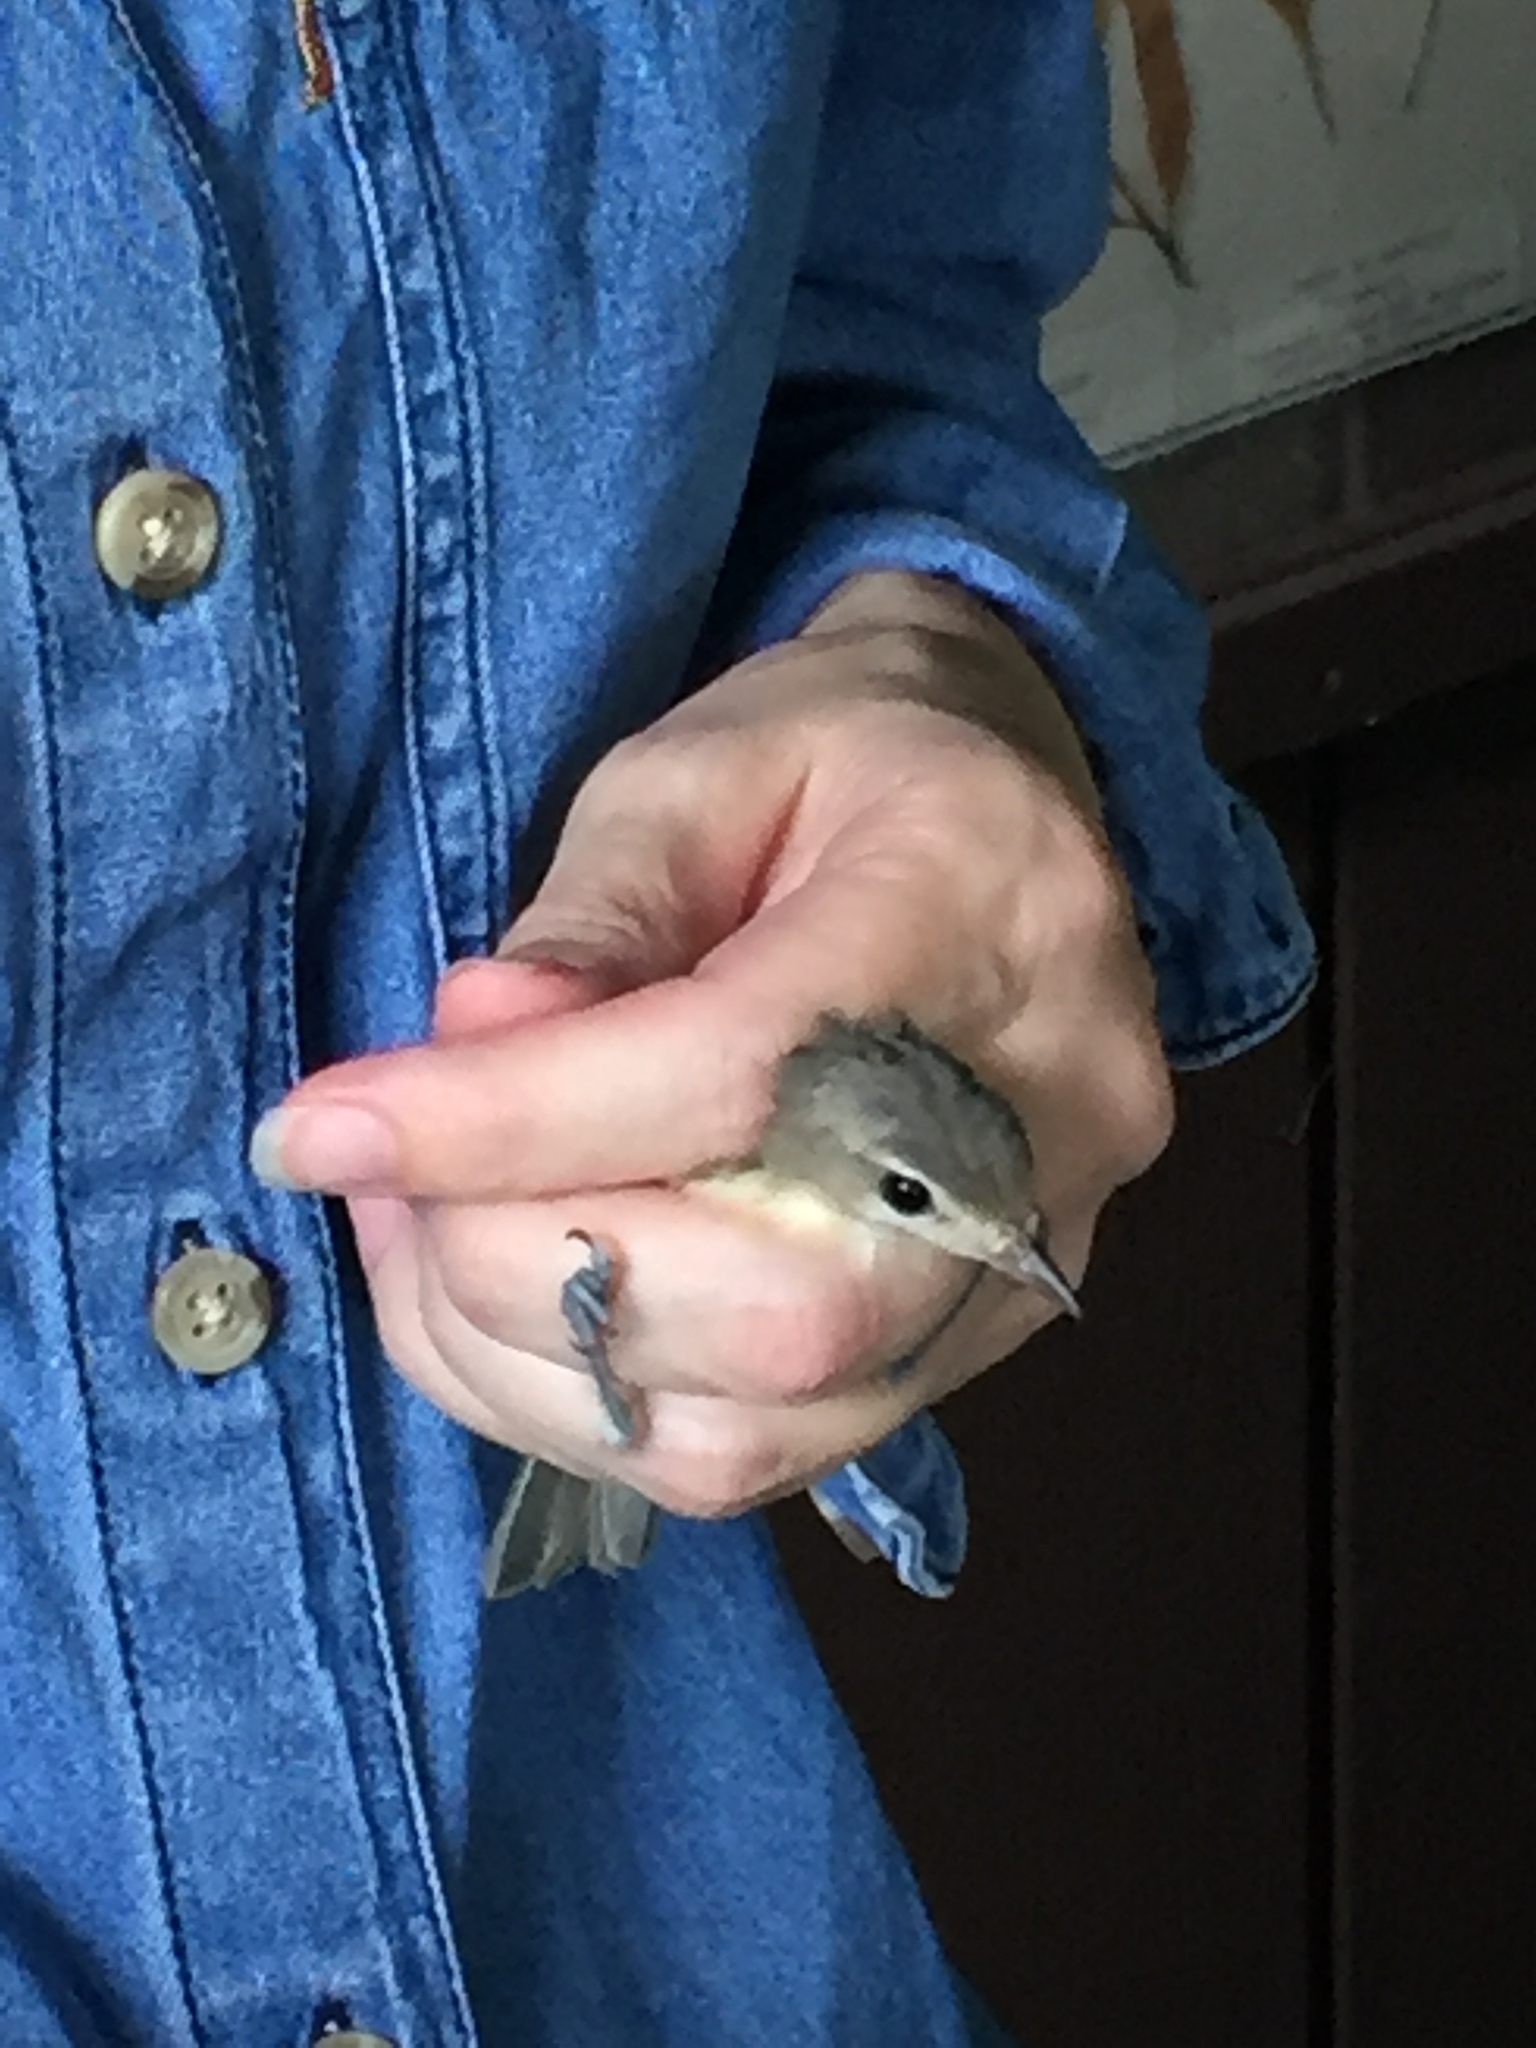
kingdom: Animalia
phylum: Chordata
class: Aves
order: Passeriformes
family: Vireonidae
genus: Vireo
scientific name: Vireo gilvus
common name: Warbling vireo
